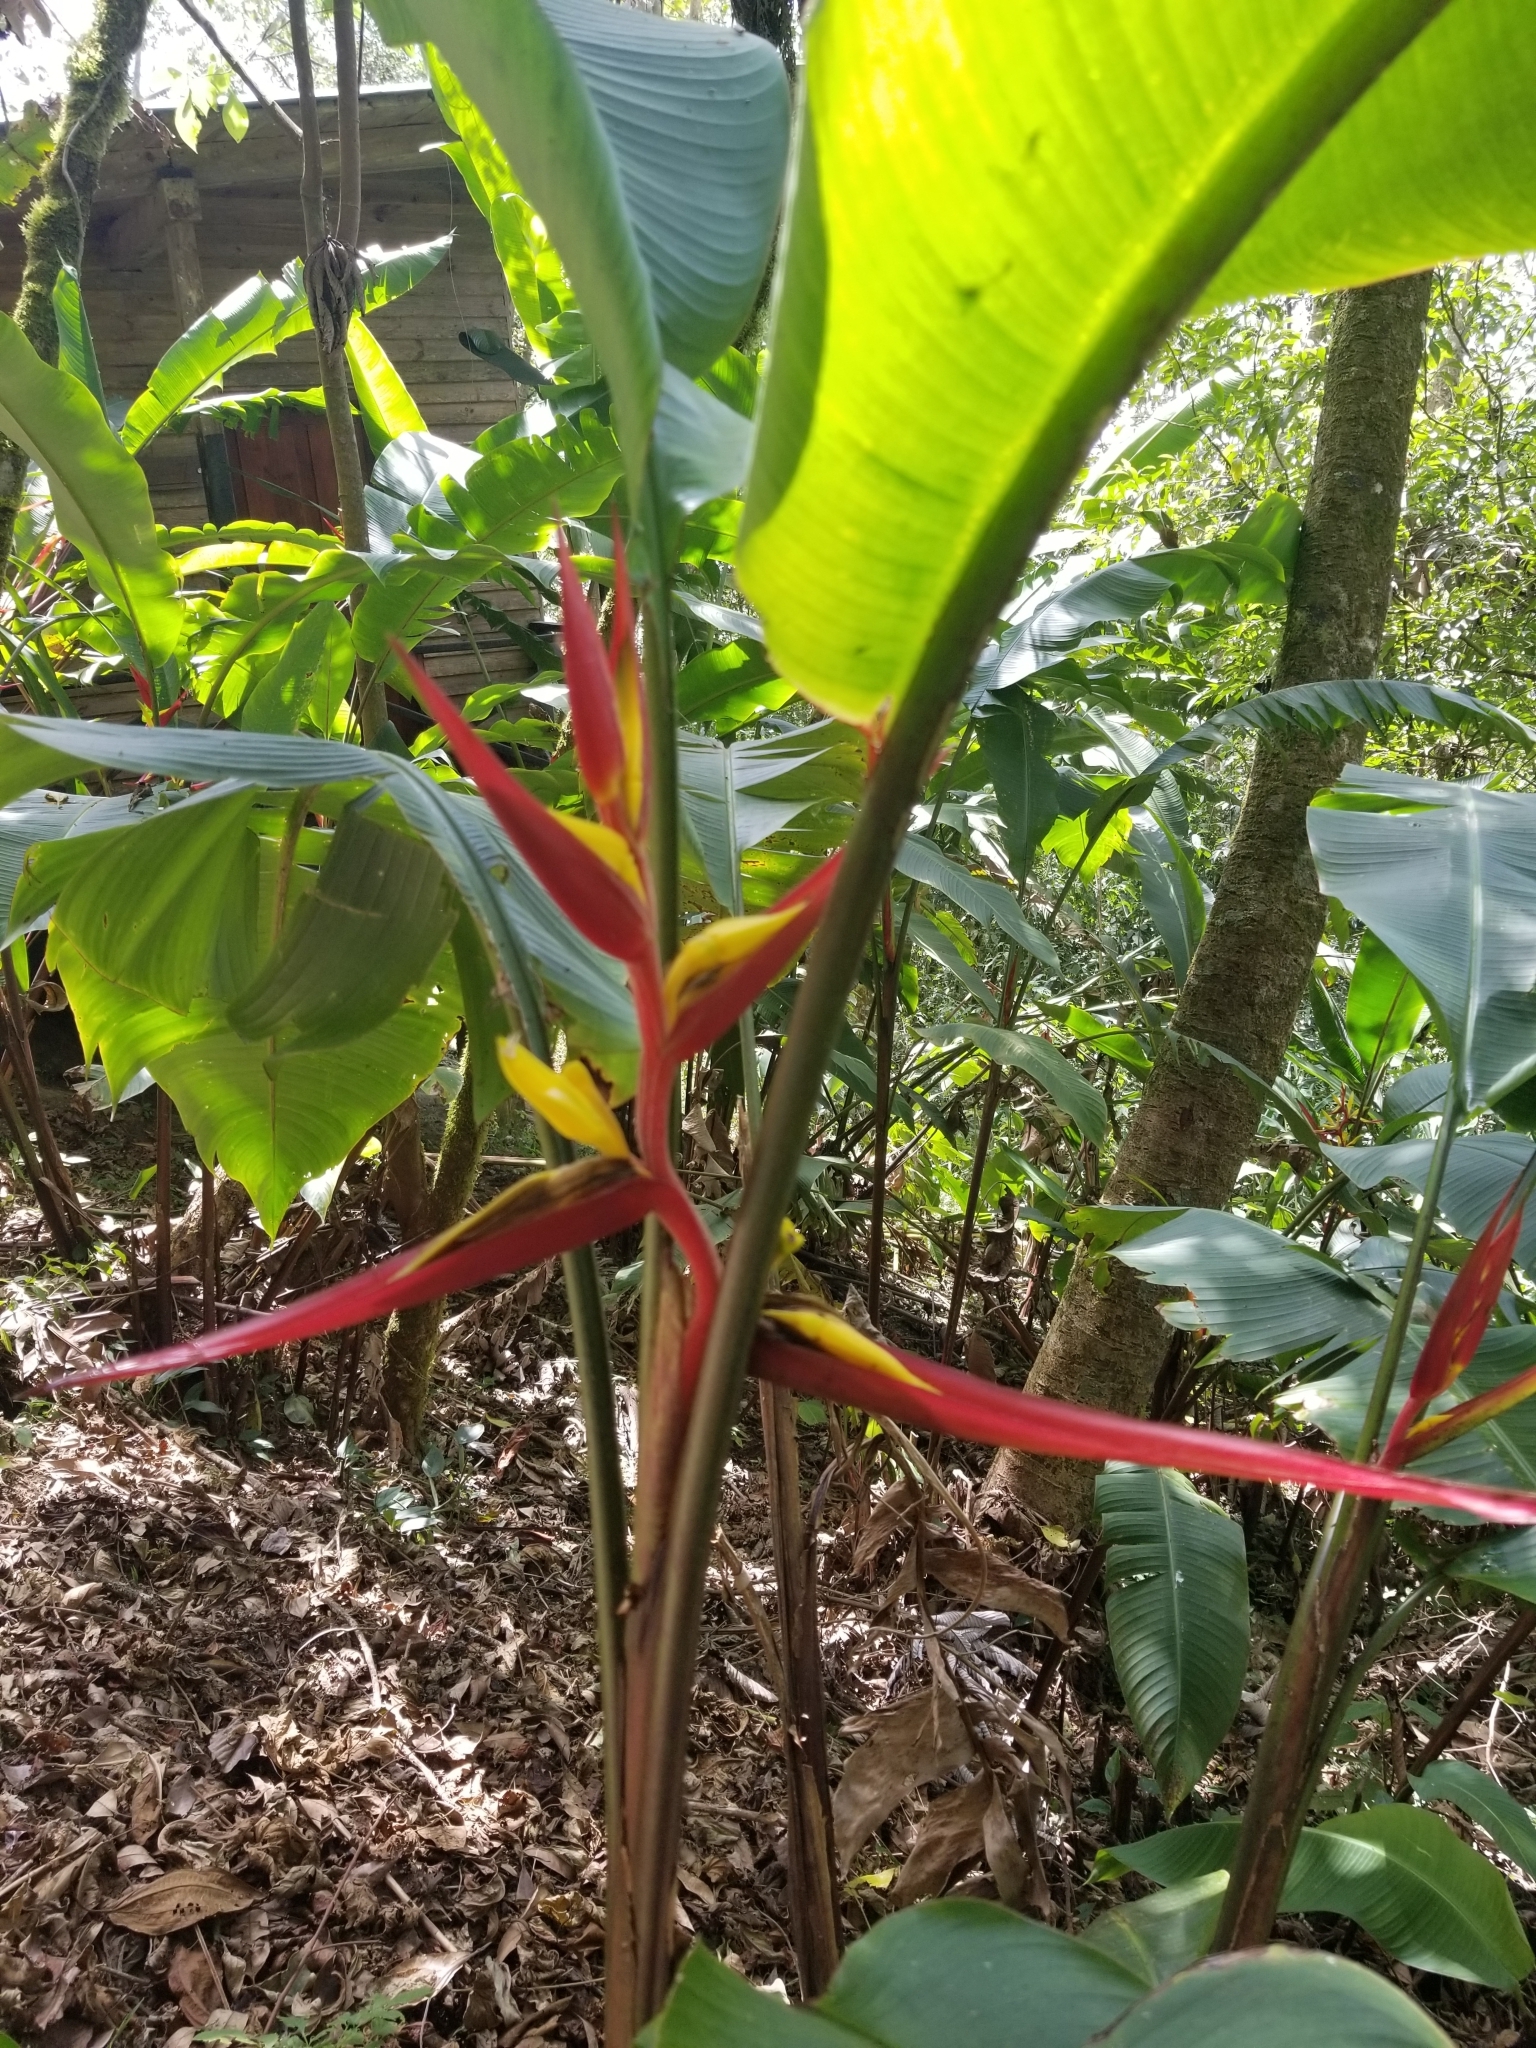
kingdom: Plantae
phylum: Tracheophyta
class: Liliopsida
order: Zingiberales
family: Heliconiaceae
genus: Heliconia
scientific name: Heliconia mincana
